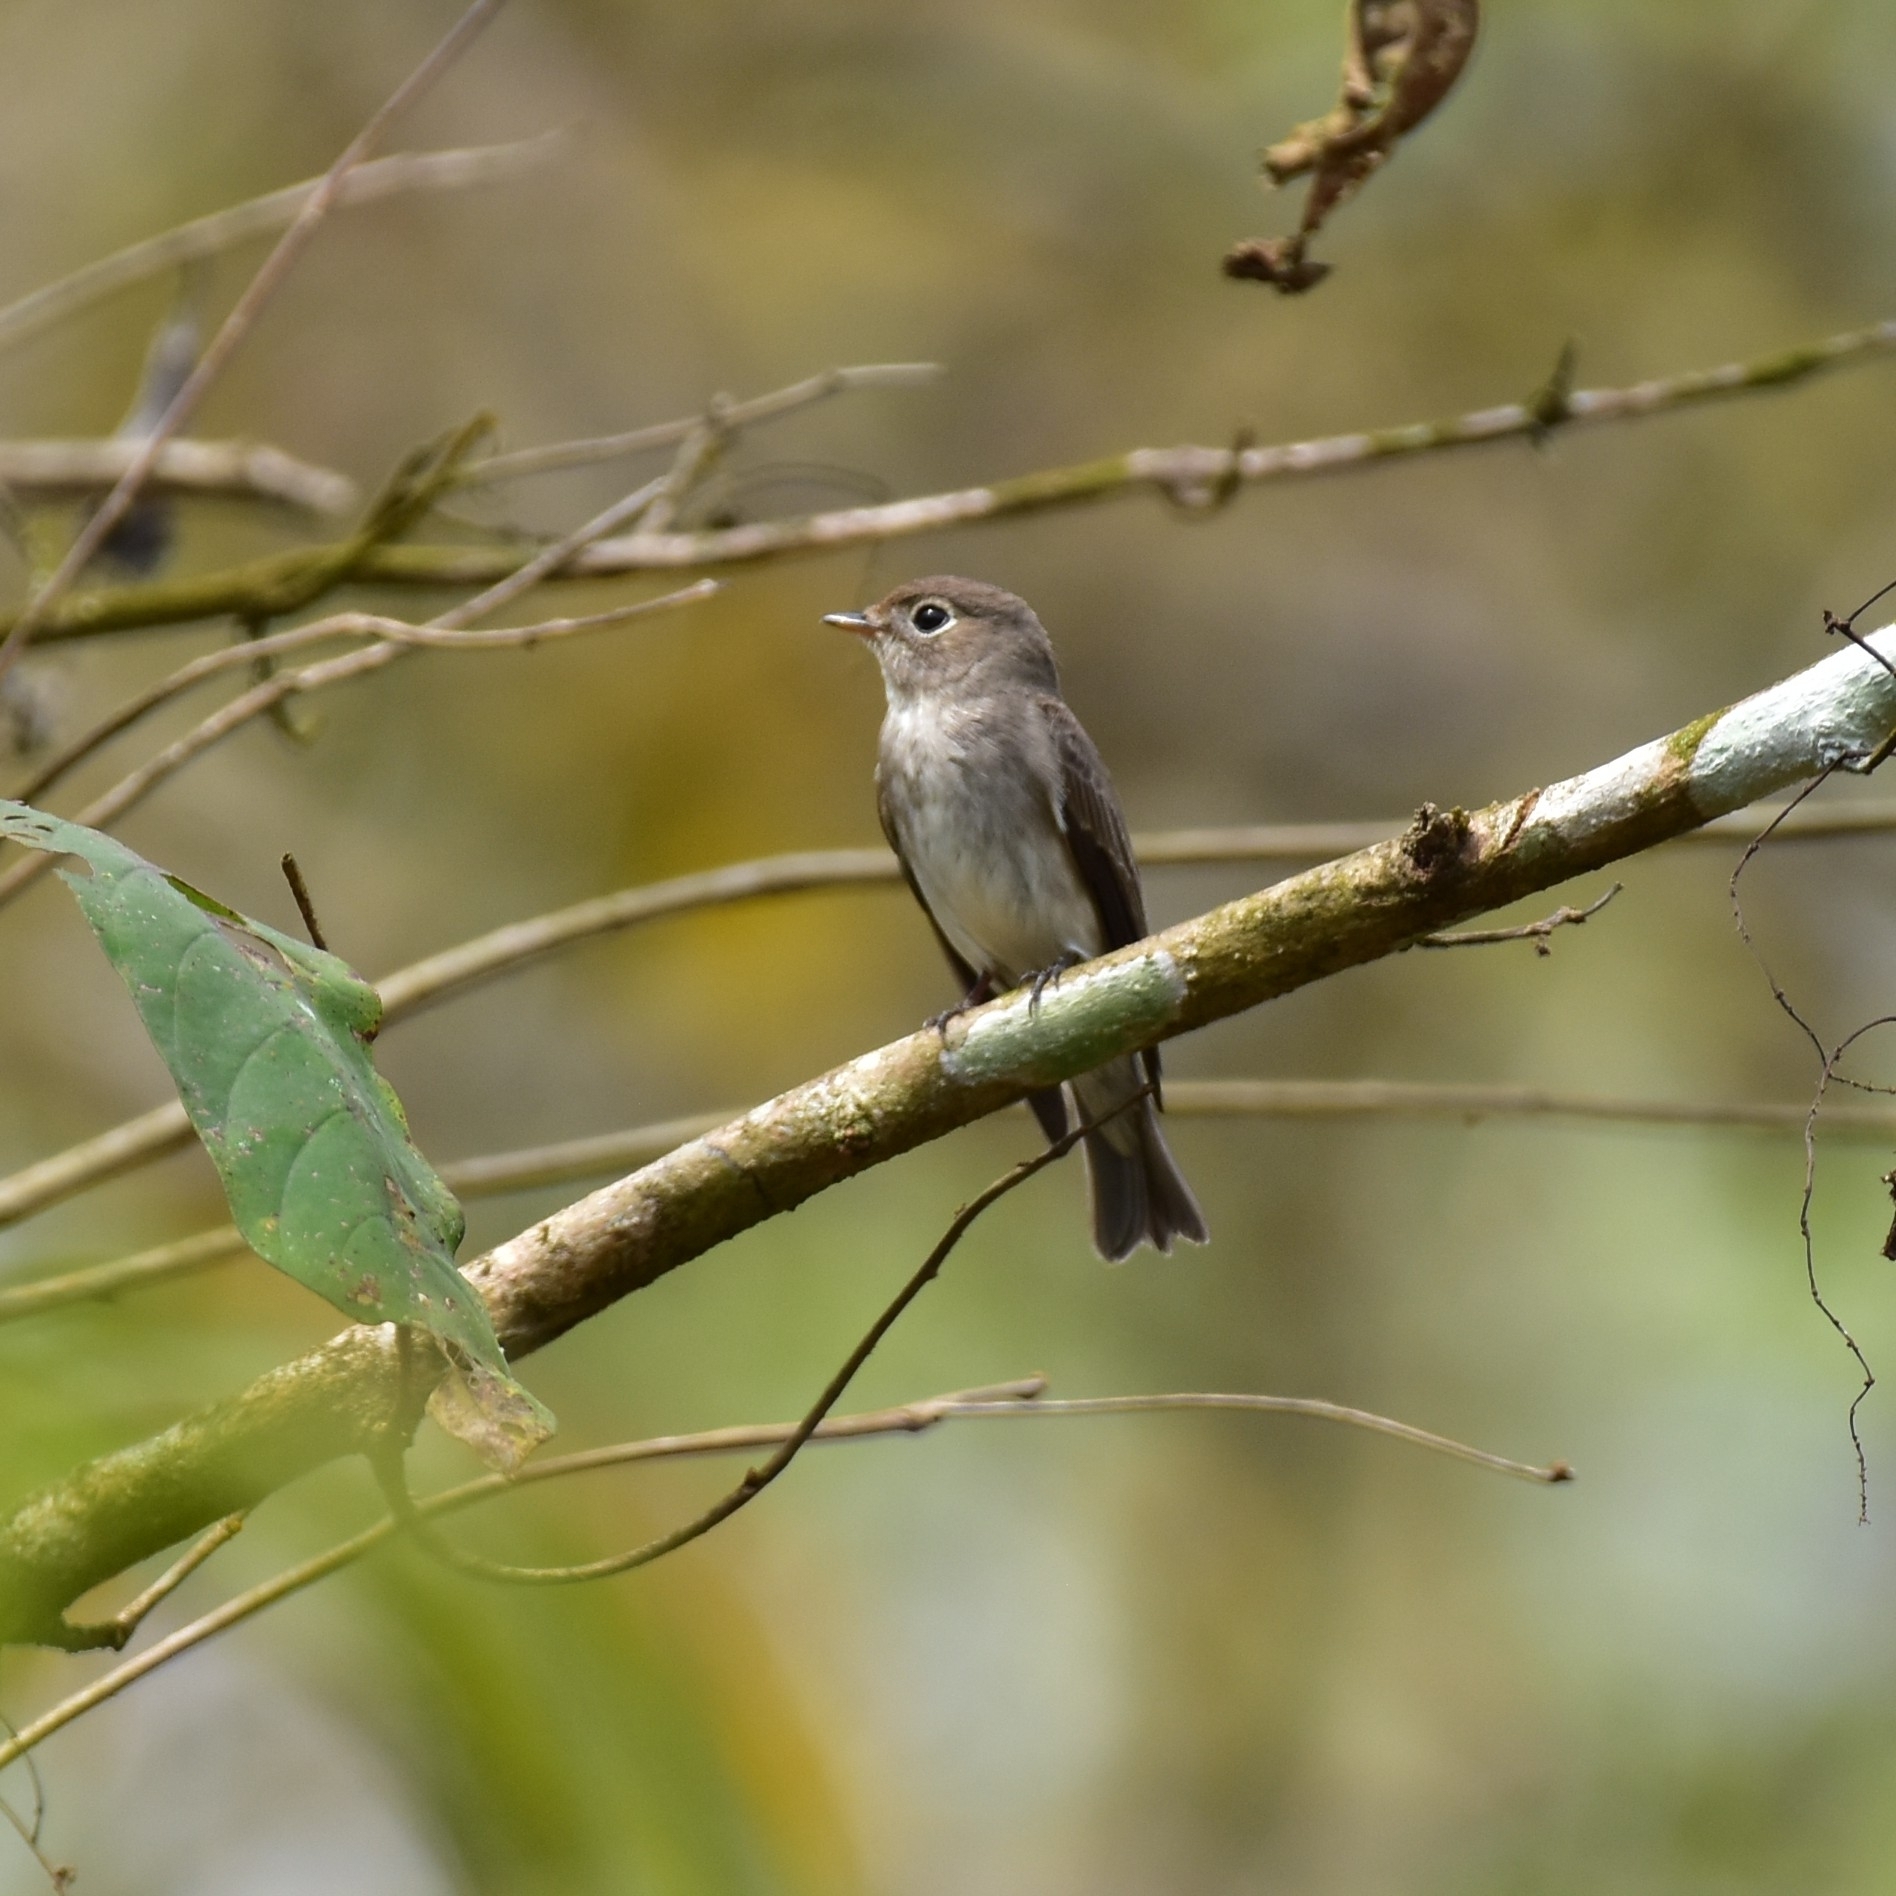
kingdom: Animalia
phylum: Chordata
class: Aves
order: Passeriformes
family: Muscicapidae
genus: Muscicapa
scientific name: Muscicapa latirostris
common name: Asian brown flycatcher
